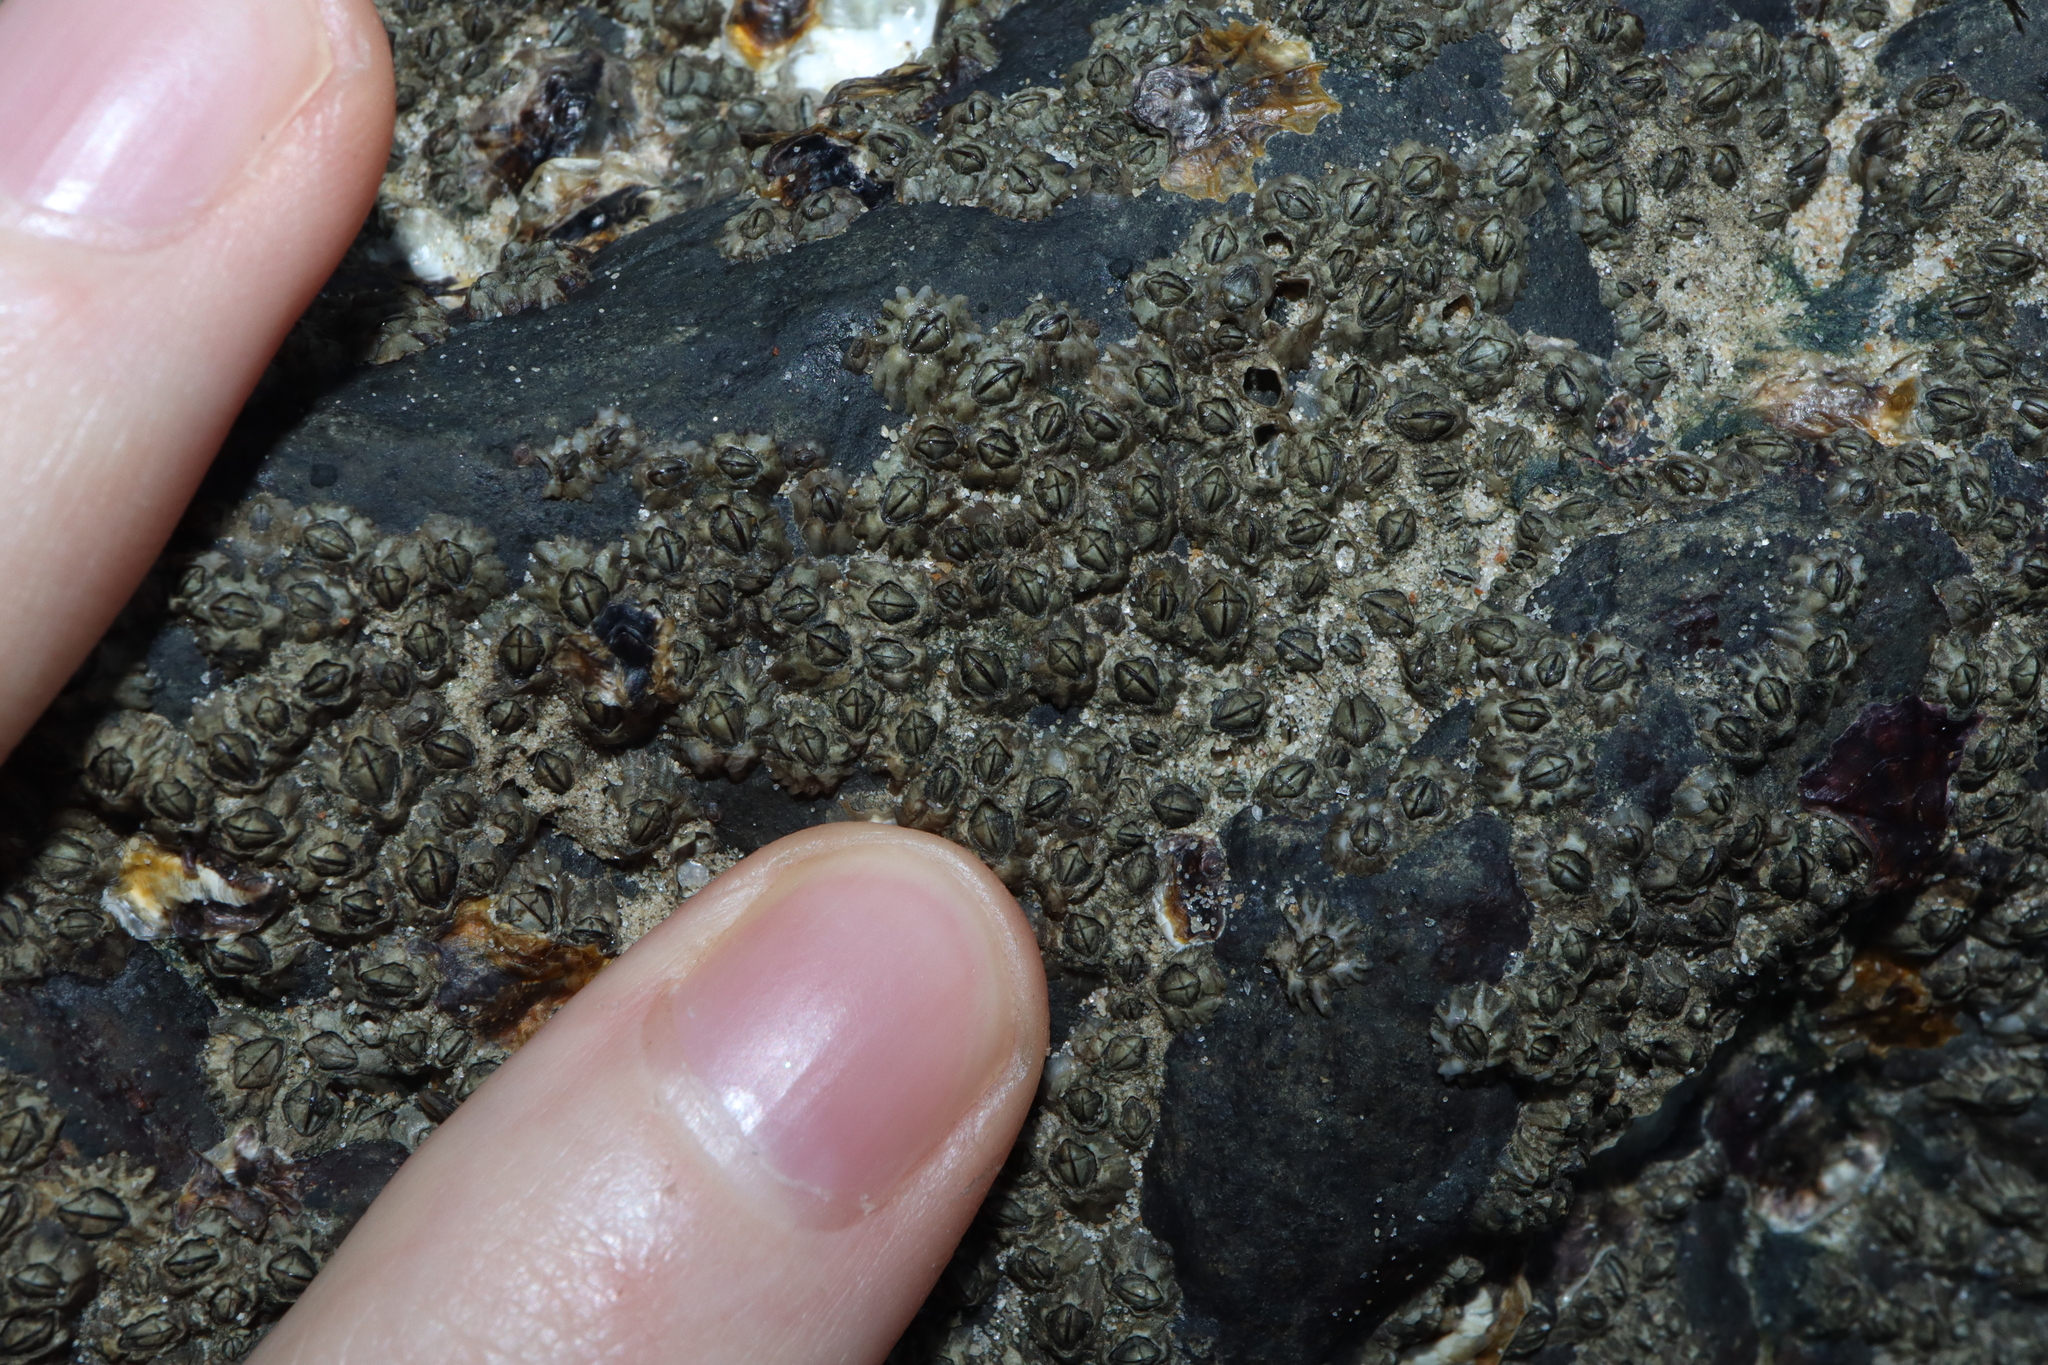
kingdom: Animalia
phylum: Arthropoda
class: Maxillopoda
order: Sessilia
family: Chthamalidae
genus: Chthamalus
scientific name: Chthamalus malayensis
